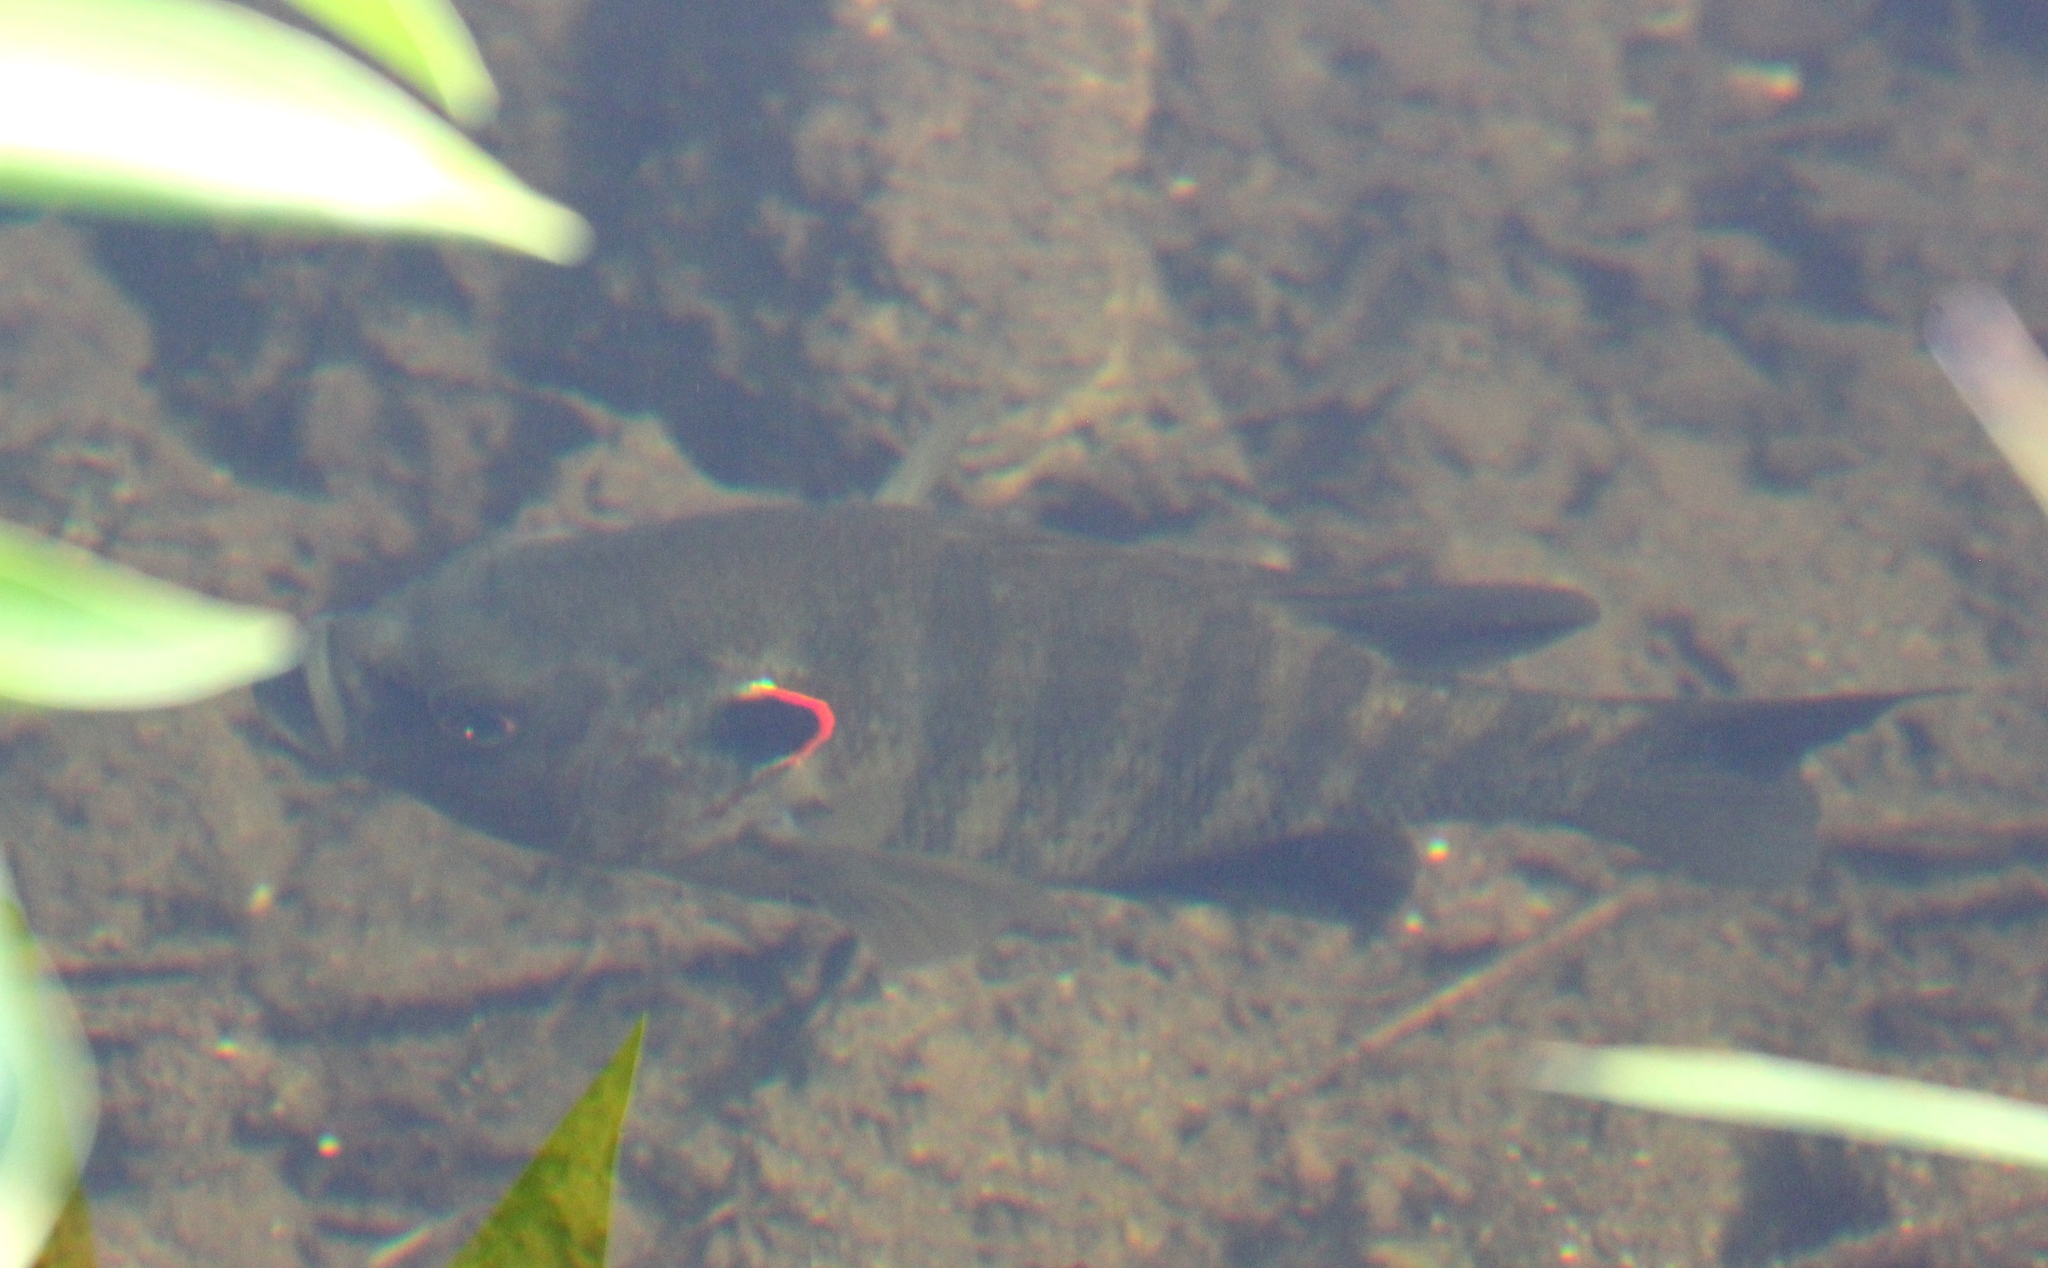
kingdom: Animalia
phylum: Chordata
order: Perciformes
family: Centrarchidae
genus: Lepomis
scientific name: Lepomis microlophus
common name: Redear sunfish
